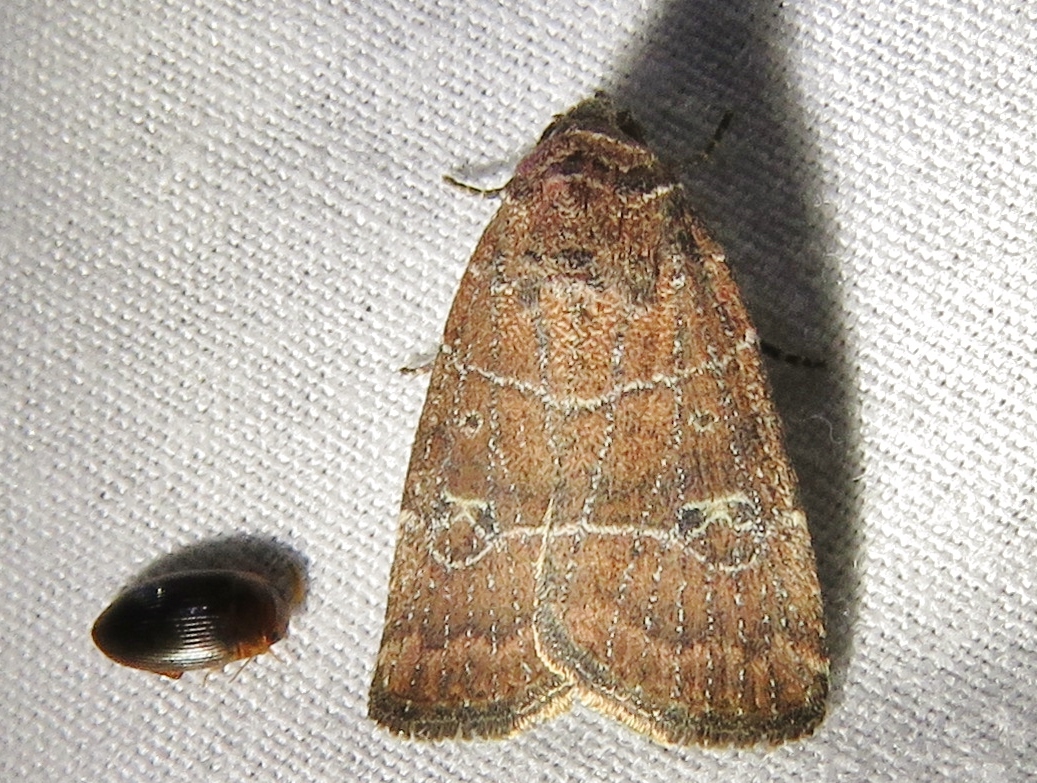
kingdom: Animalia
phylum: Arthropoda
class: Insecta
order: Lepidoptera
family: Noctuidae
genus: Elaphria
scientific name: Elaphria grata
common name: Grateful midget moth
